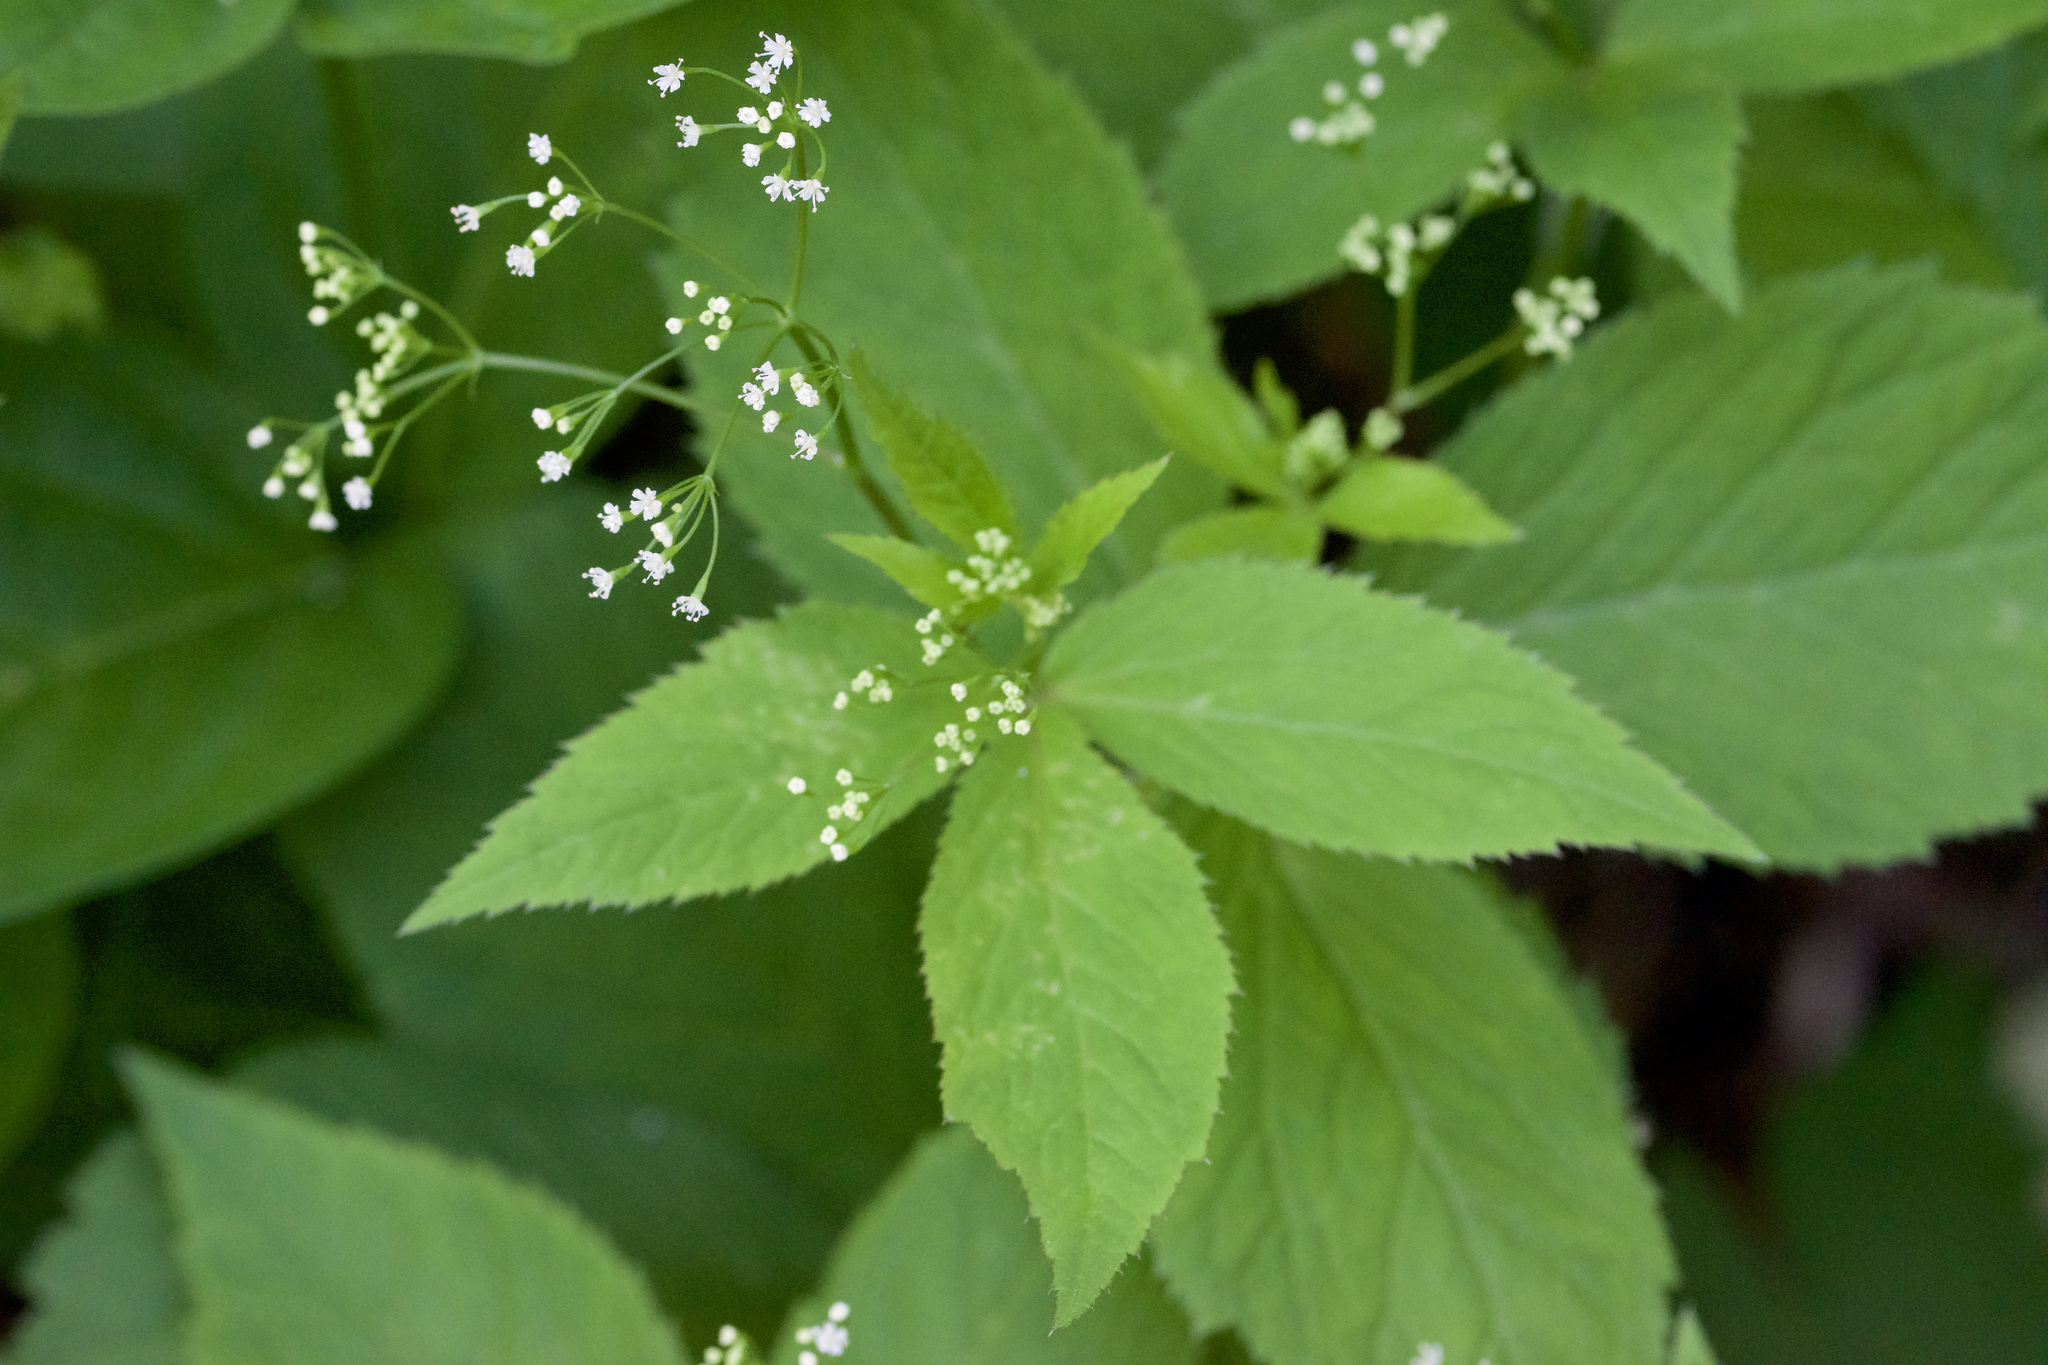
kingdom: Plantae
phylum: Tracheophyta
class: Magnoliopsida
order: Apiales
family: Apiaceae
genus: Cryptotaenia
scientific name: Cryptotaenia canadensis
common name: Honewort
